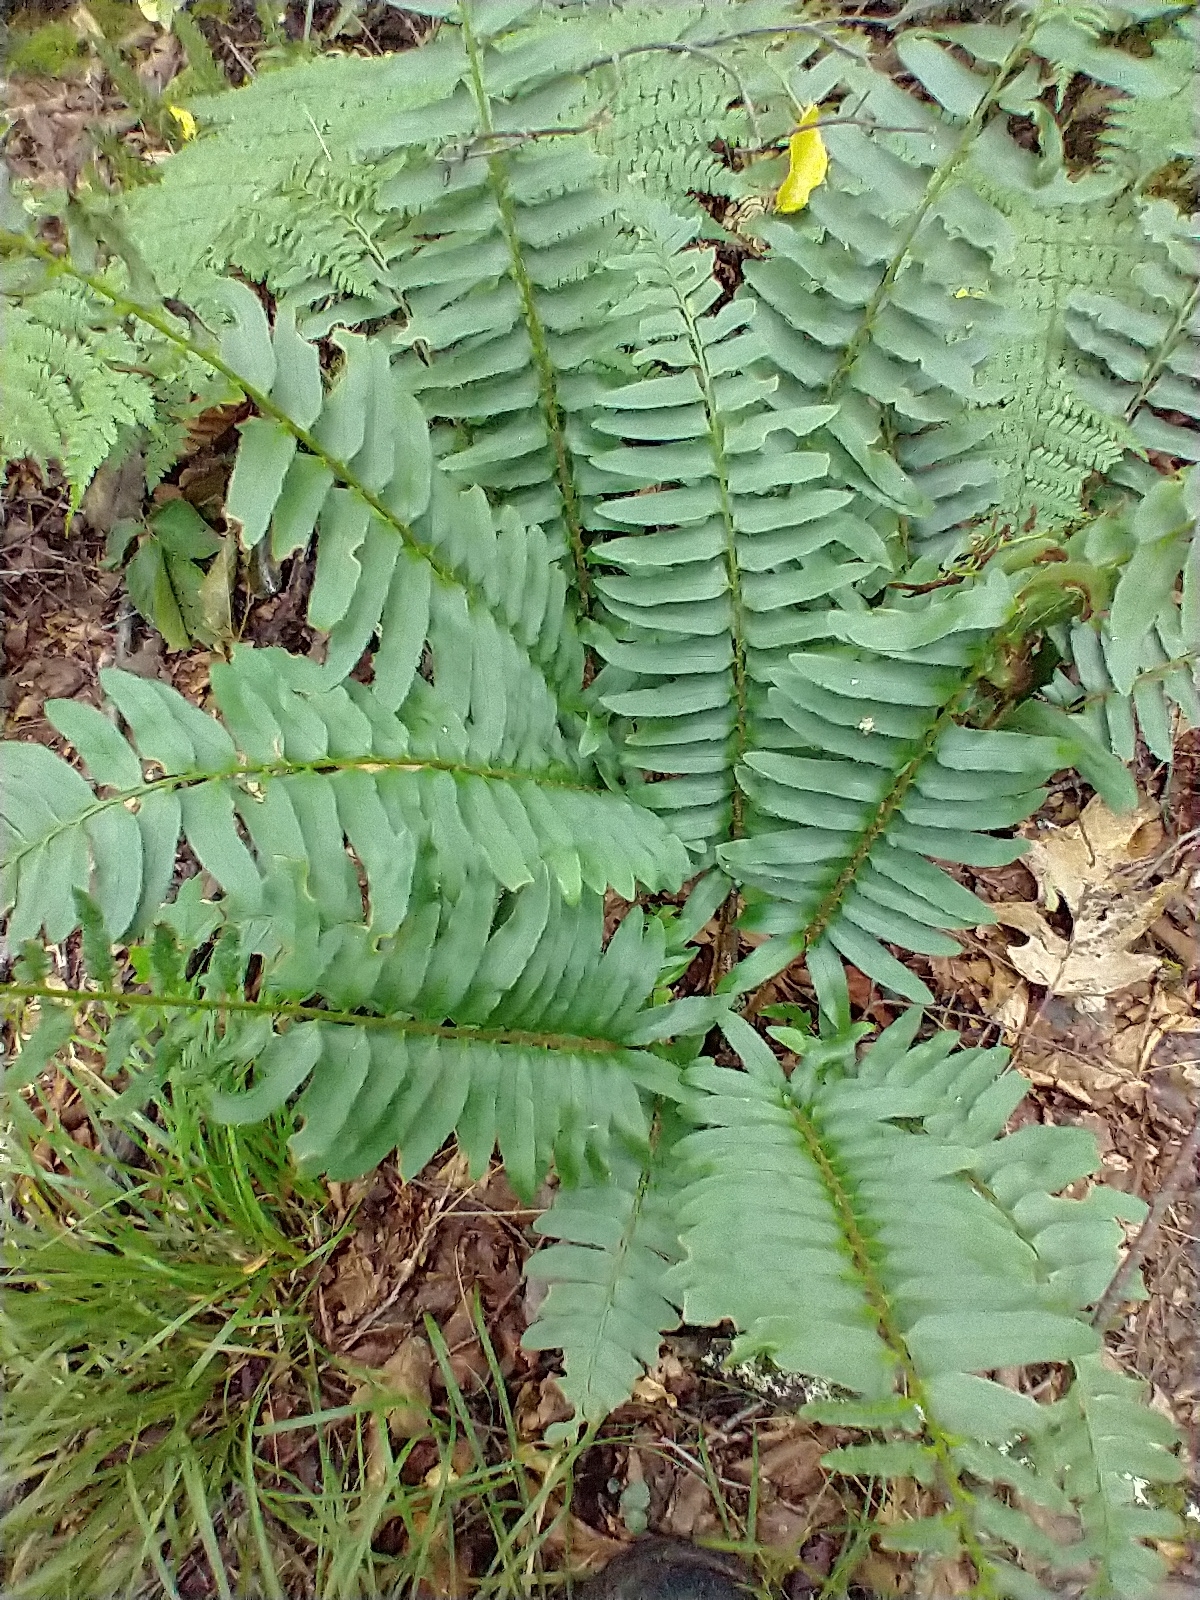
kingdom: Plantae
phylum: Tracheophyta
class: Polypodiopsida
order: Polypodiales
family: Dryopteridaceae
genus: Polystichum
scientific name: Polystichum acrostichoides
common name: Christmas fern
